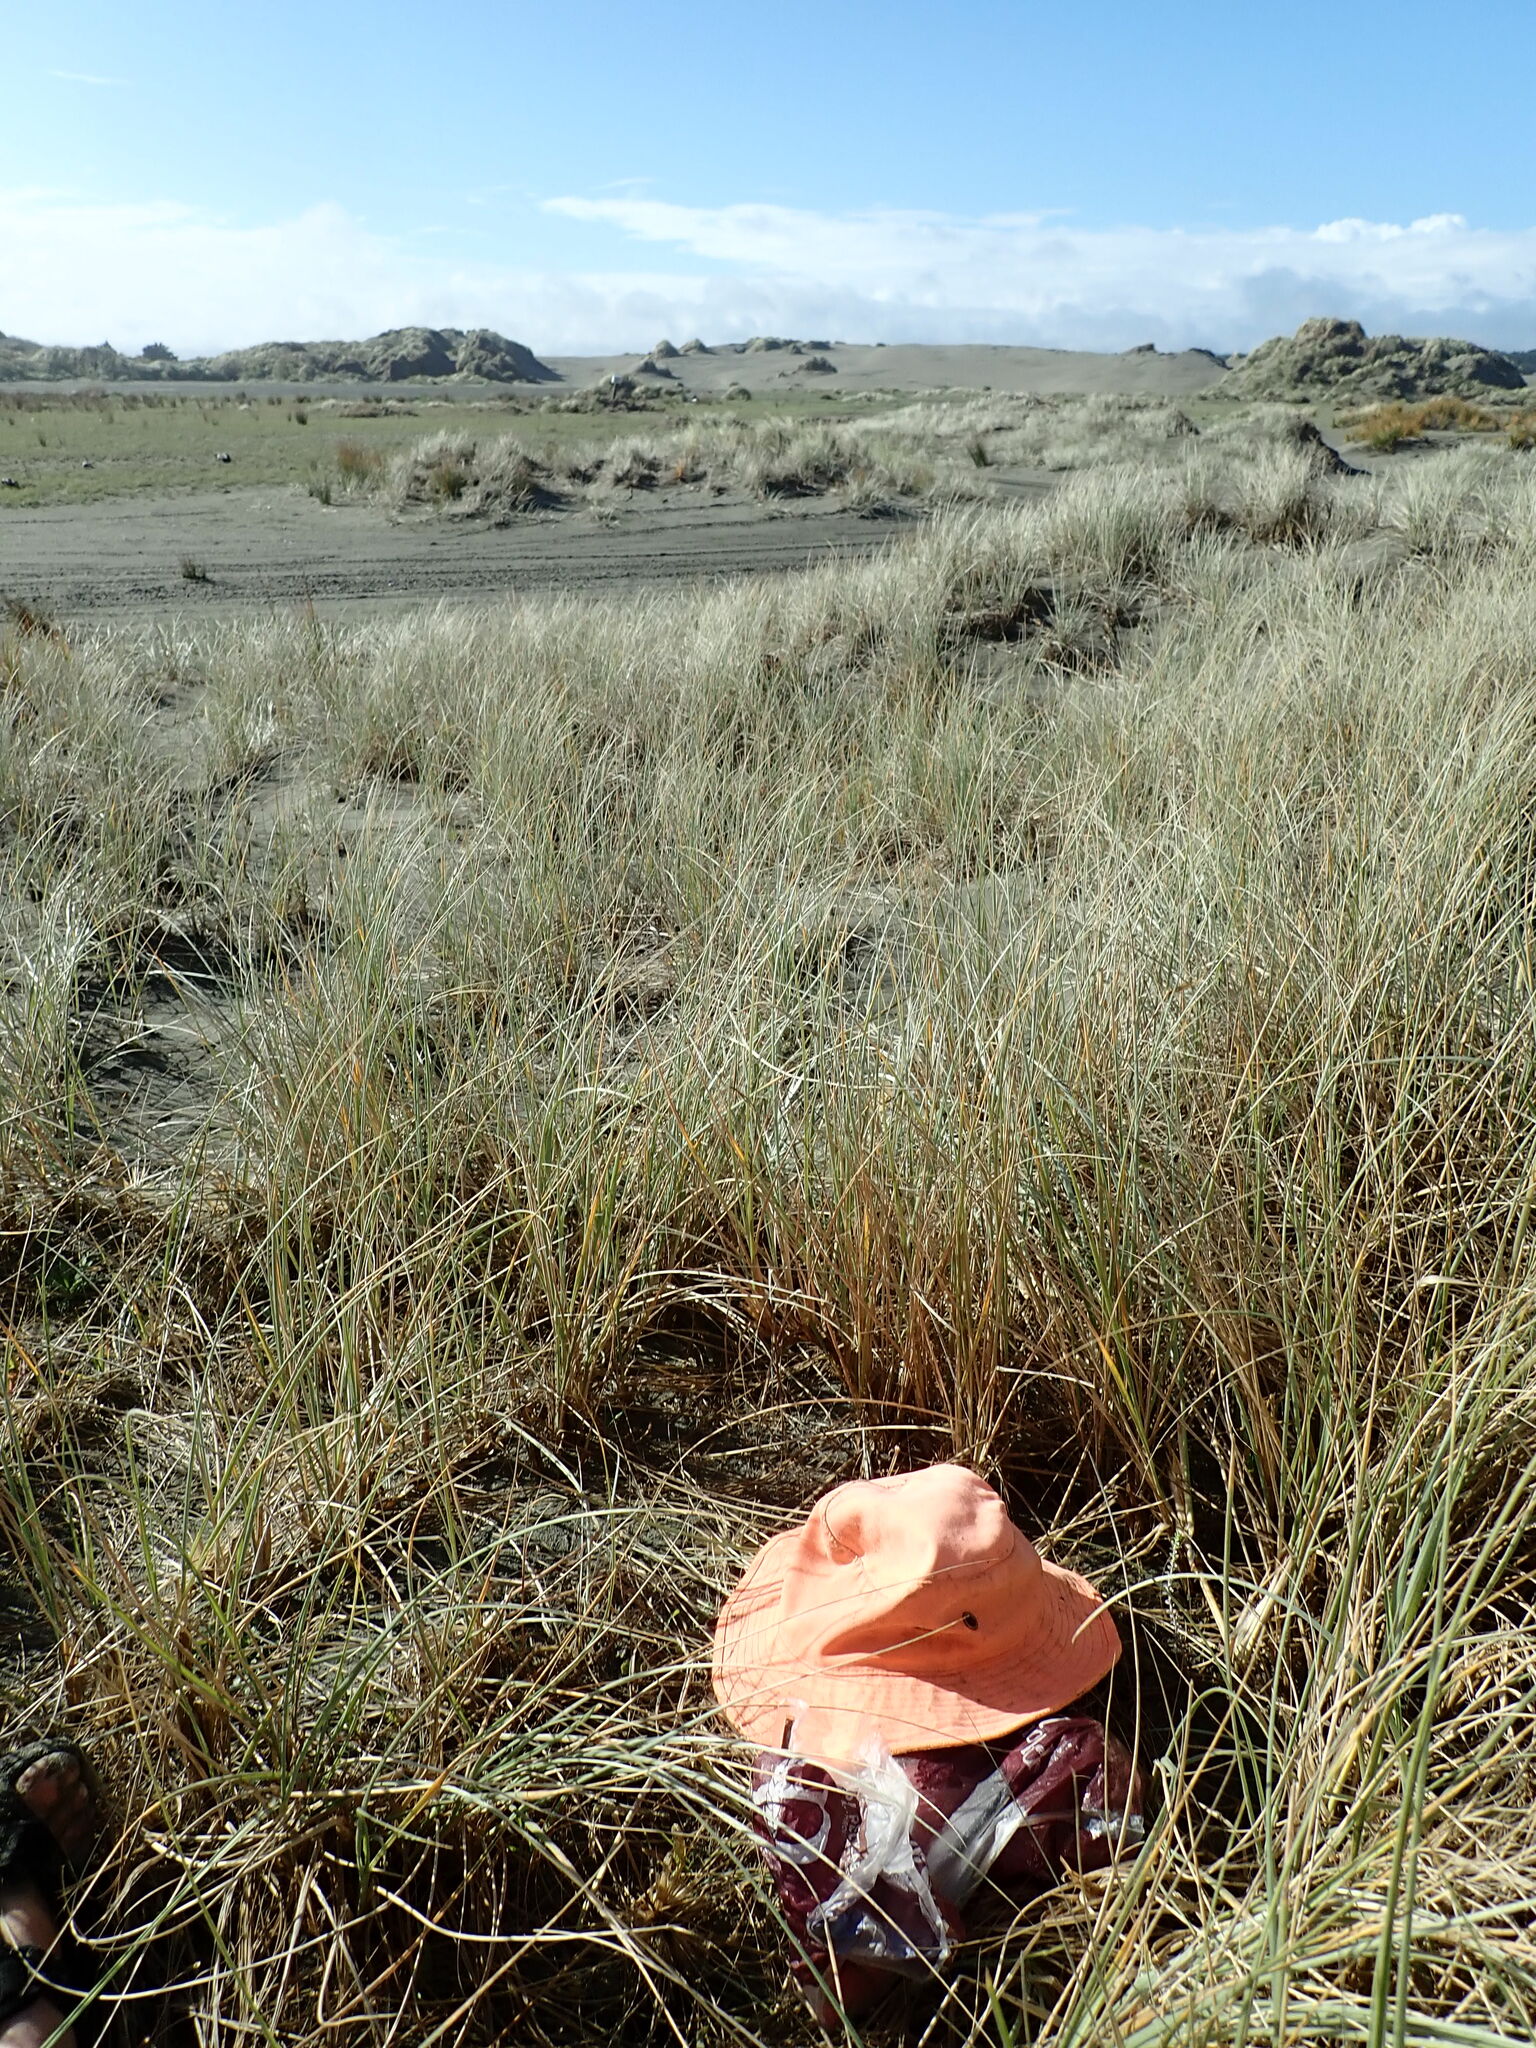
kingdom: Plantae
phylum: Tracheophyta
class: Magnoliopsida
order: Asterales
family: Asteraceae
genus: Ozothamnus
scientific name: Ozothamnus leptophyllus
